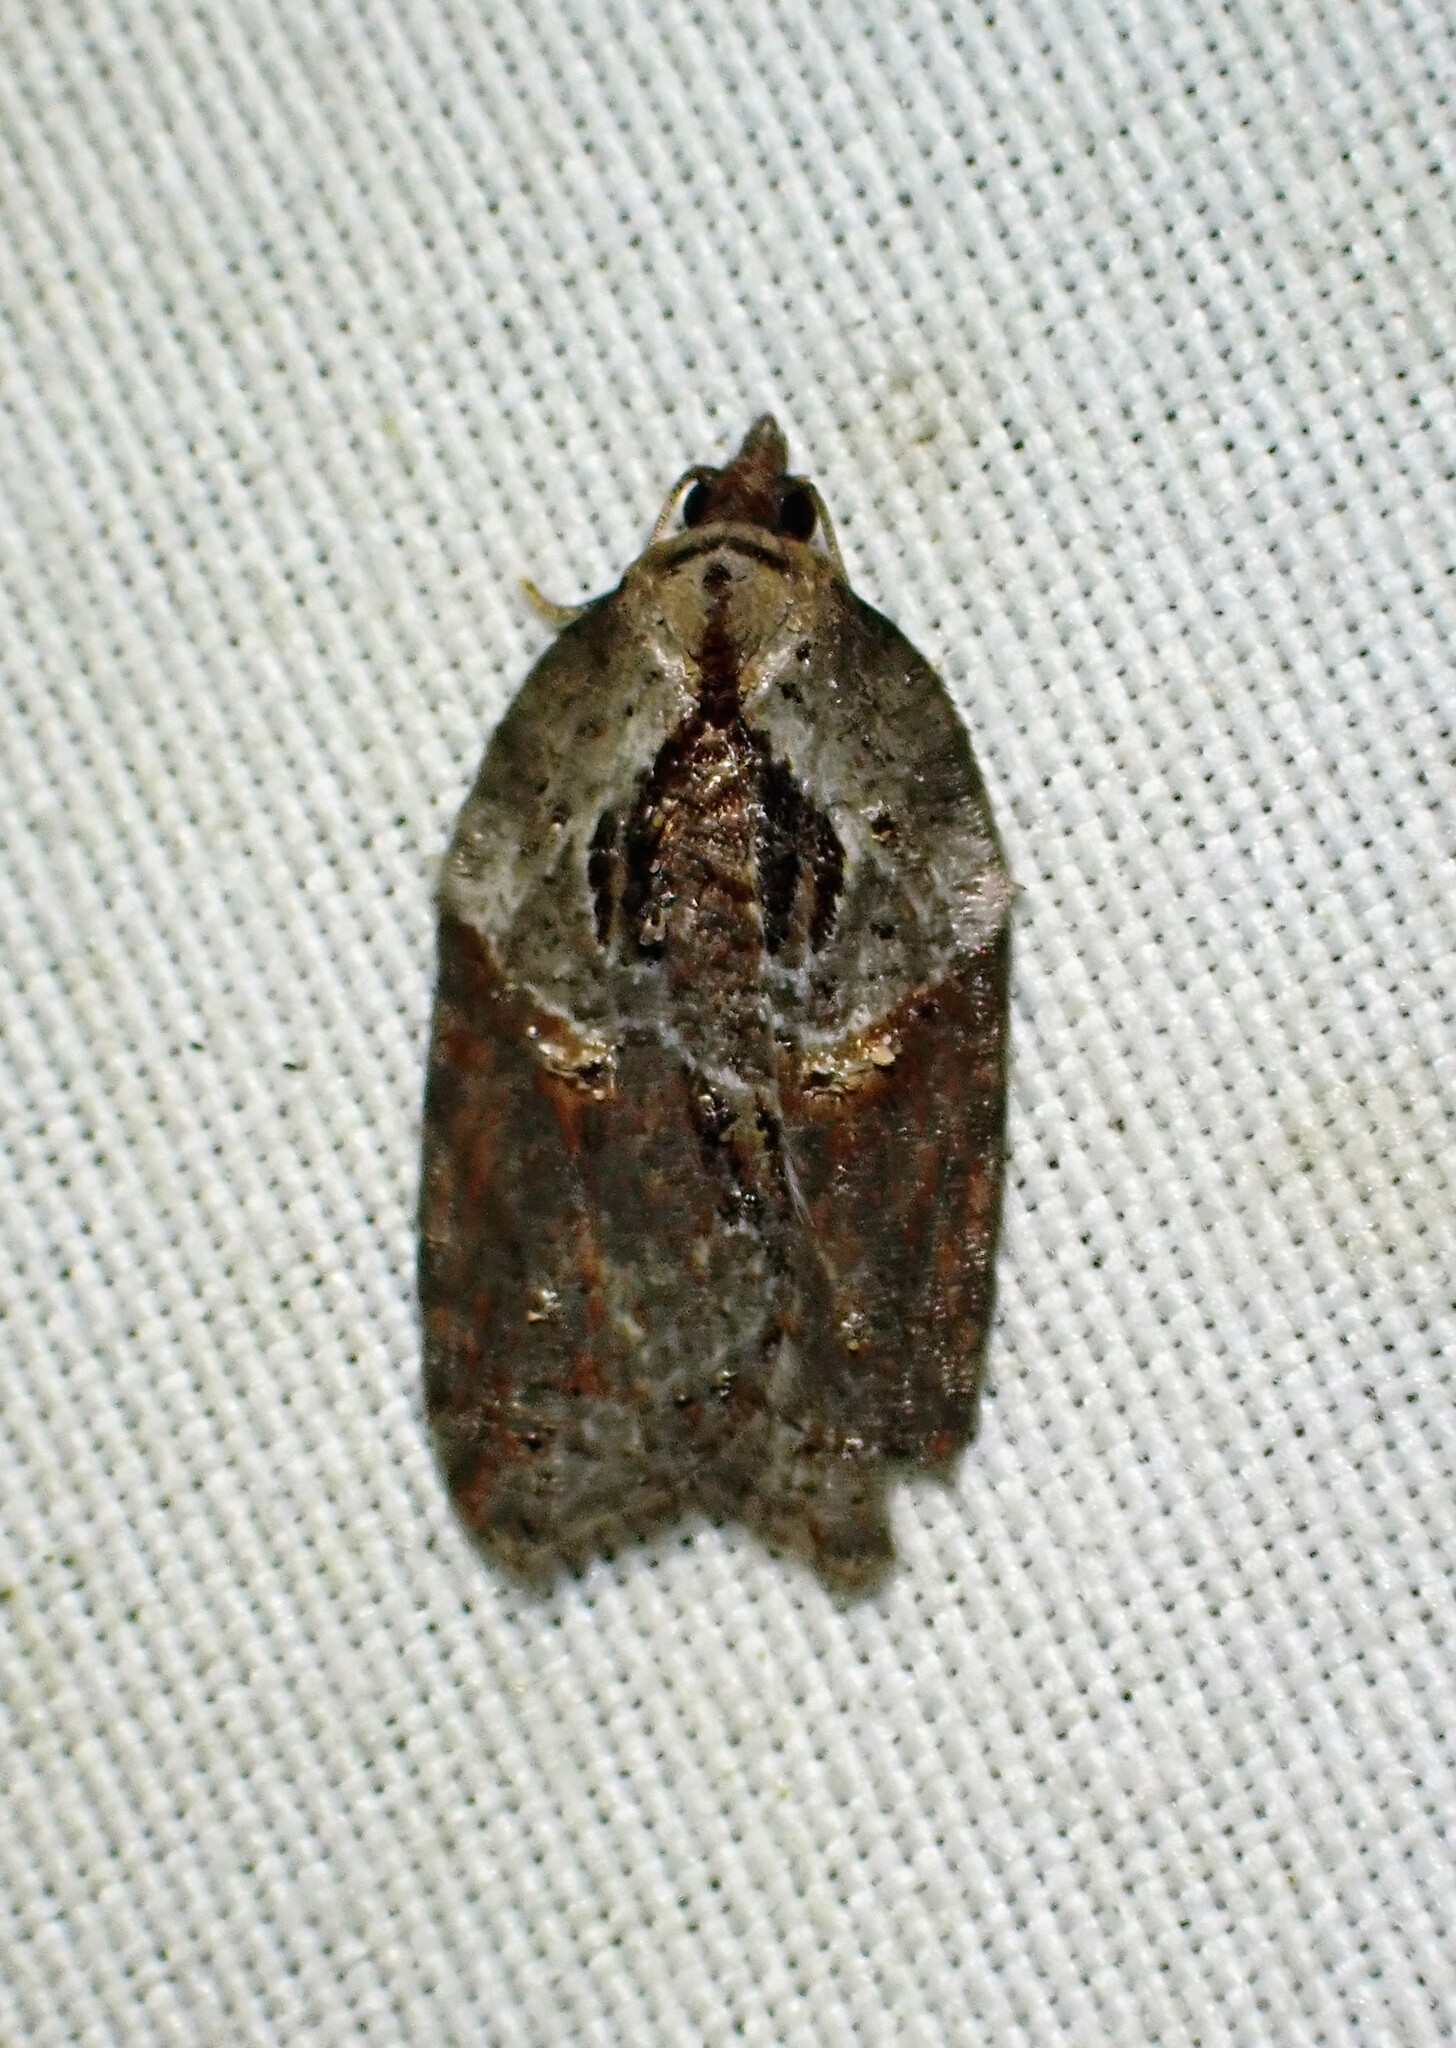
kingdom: Animalia
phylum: Arthropoda
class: Insecta
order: Lepidoptera
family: Tortricidae
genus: Acleris
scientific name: Acleris inana
